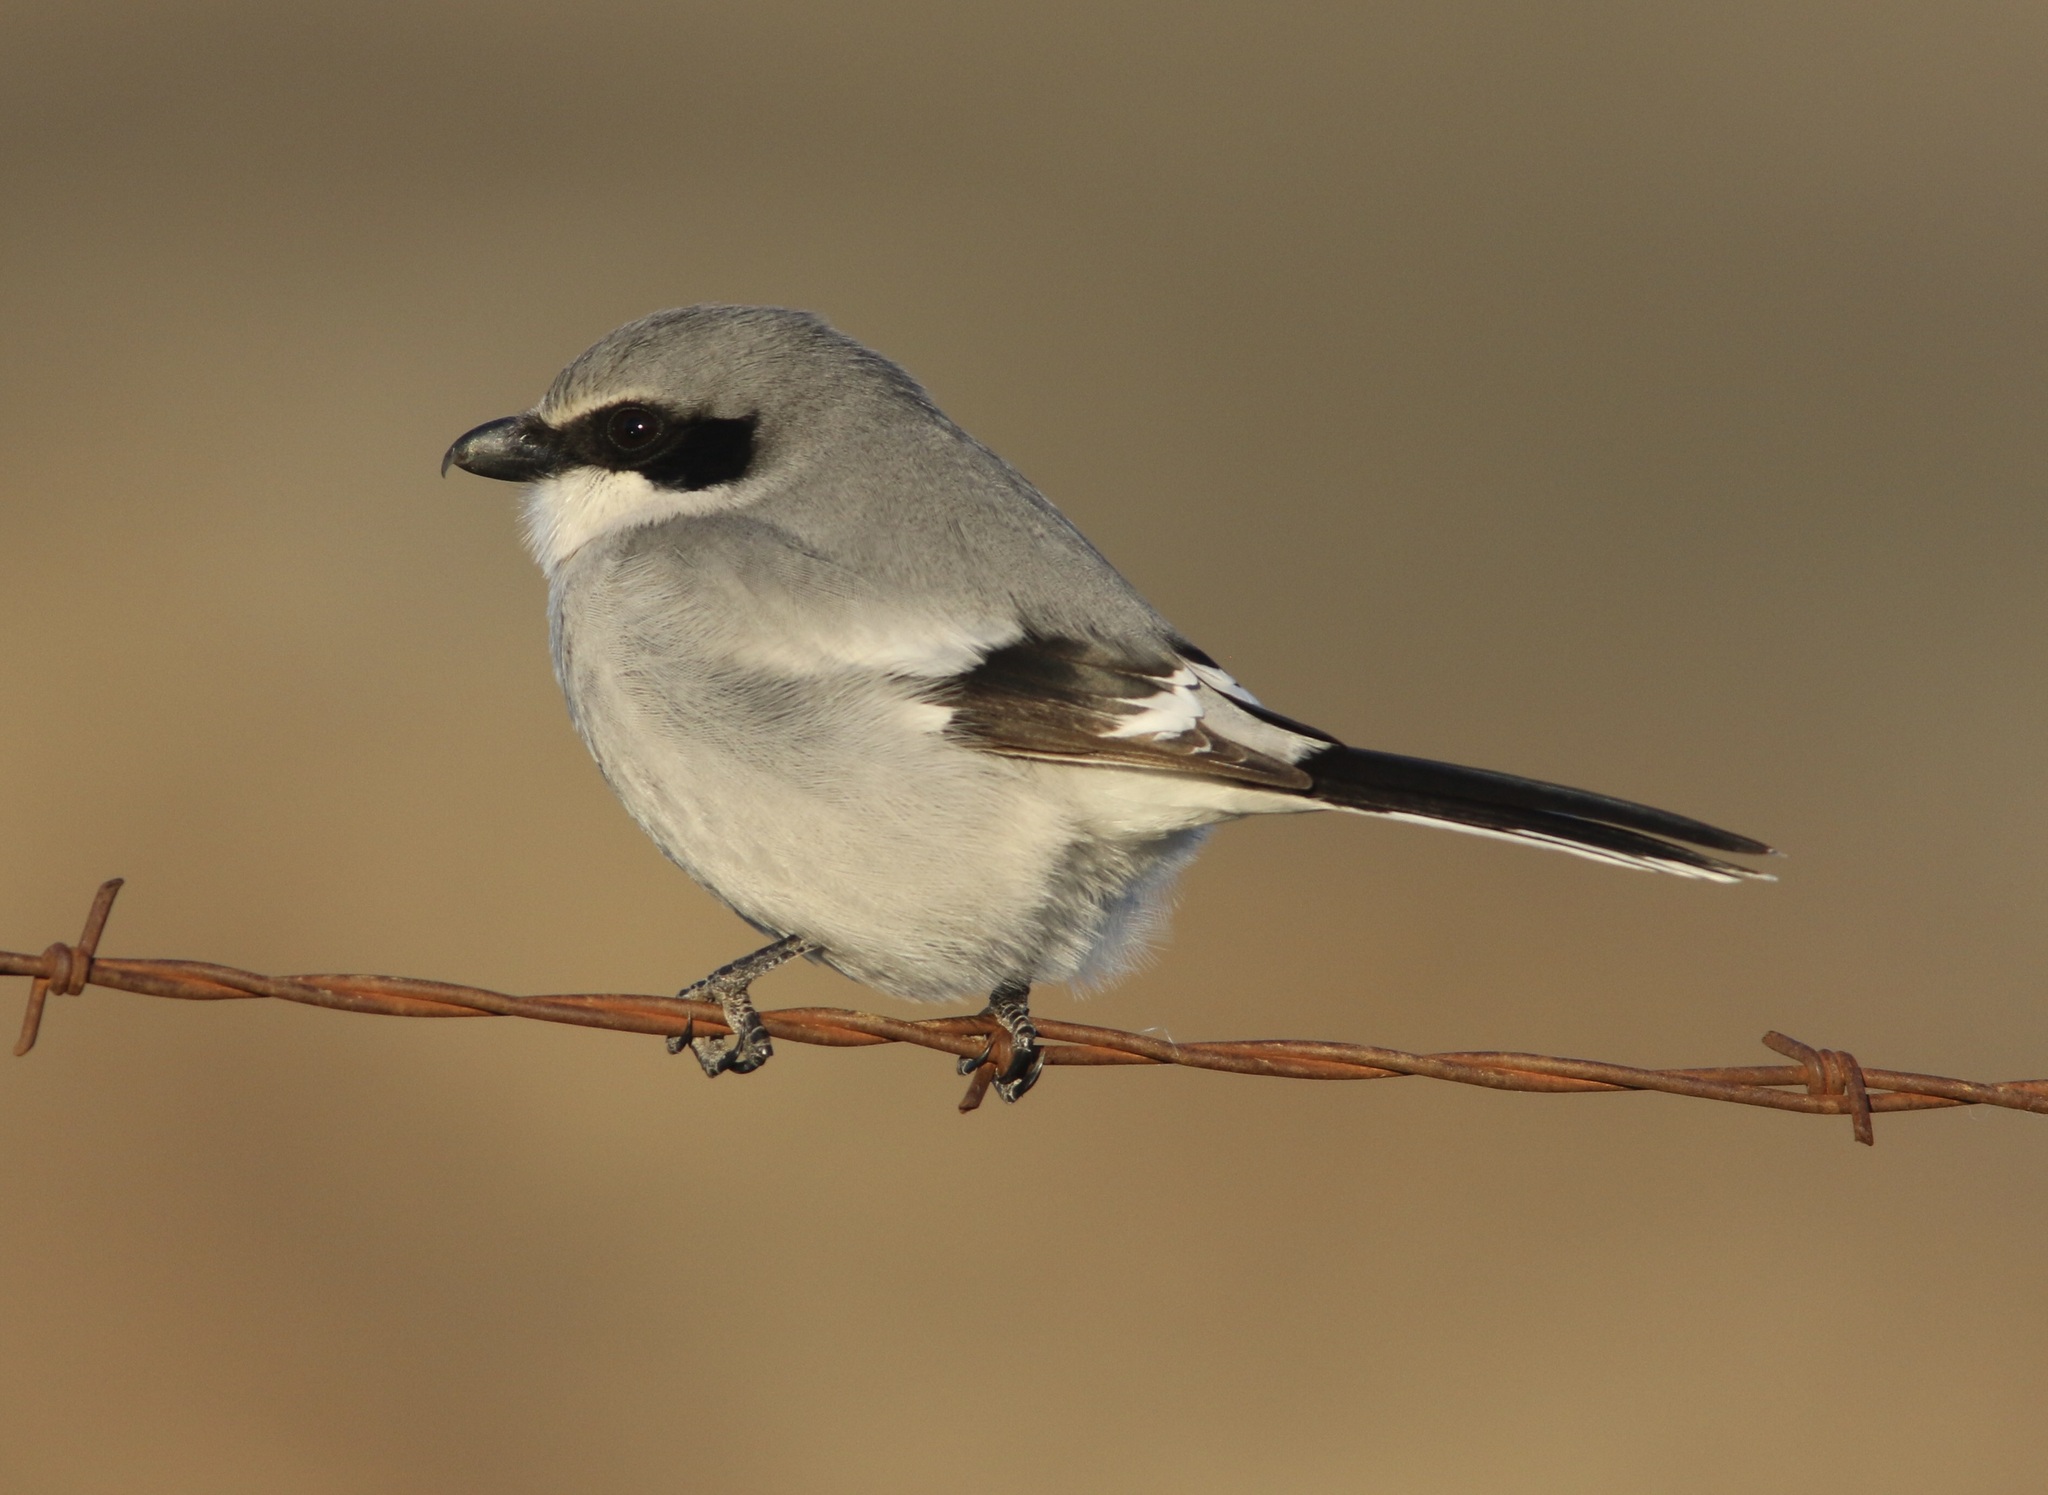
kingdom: Animalia
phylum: Chordata
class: Aves
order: Passeriformes
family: Laniidae
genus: Lanius
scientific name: Lanius ludovicianus
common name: Loggerhead shrike
